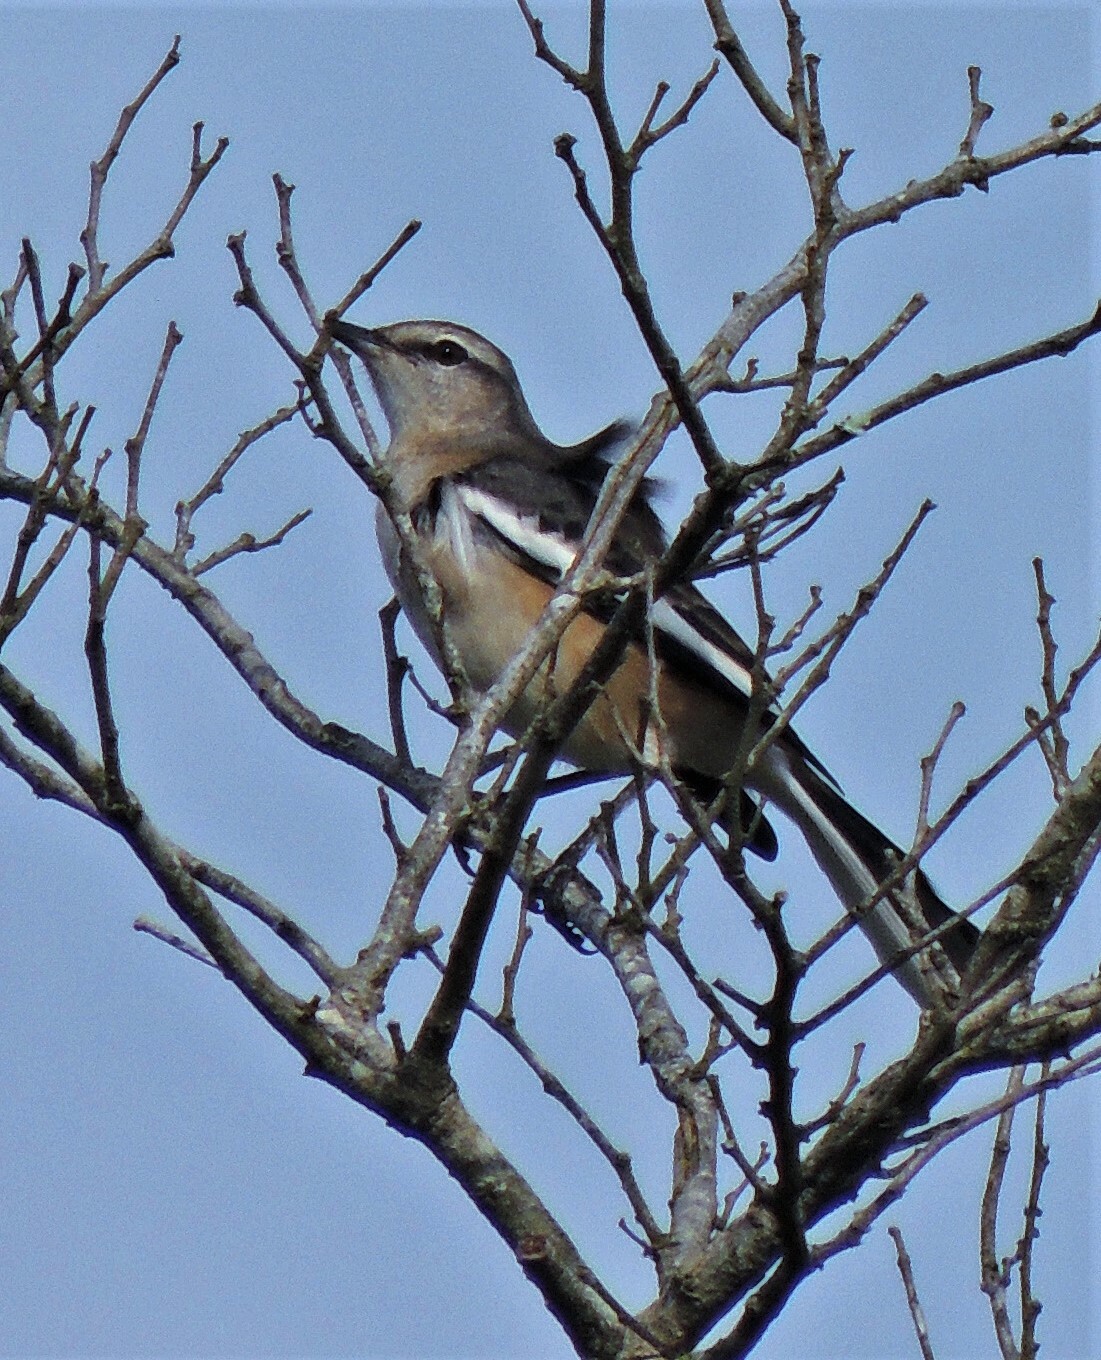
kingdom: Animalia
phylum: Chordata
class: Aves
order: Passeriformes
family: Mimidae
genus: Mimus
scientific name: Mimus triurus
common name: White-banded mockingbird
